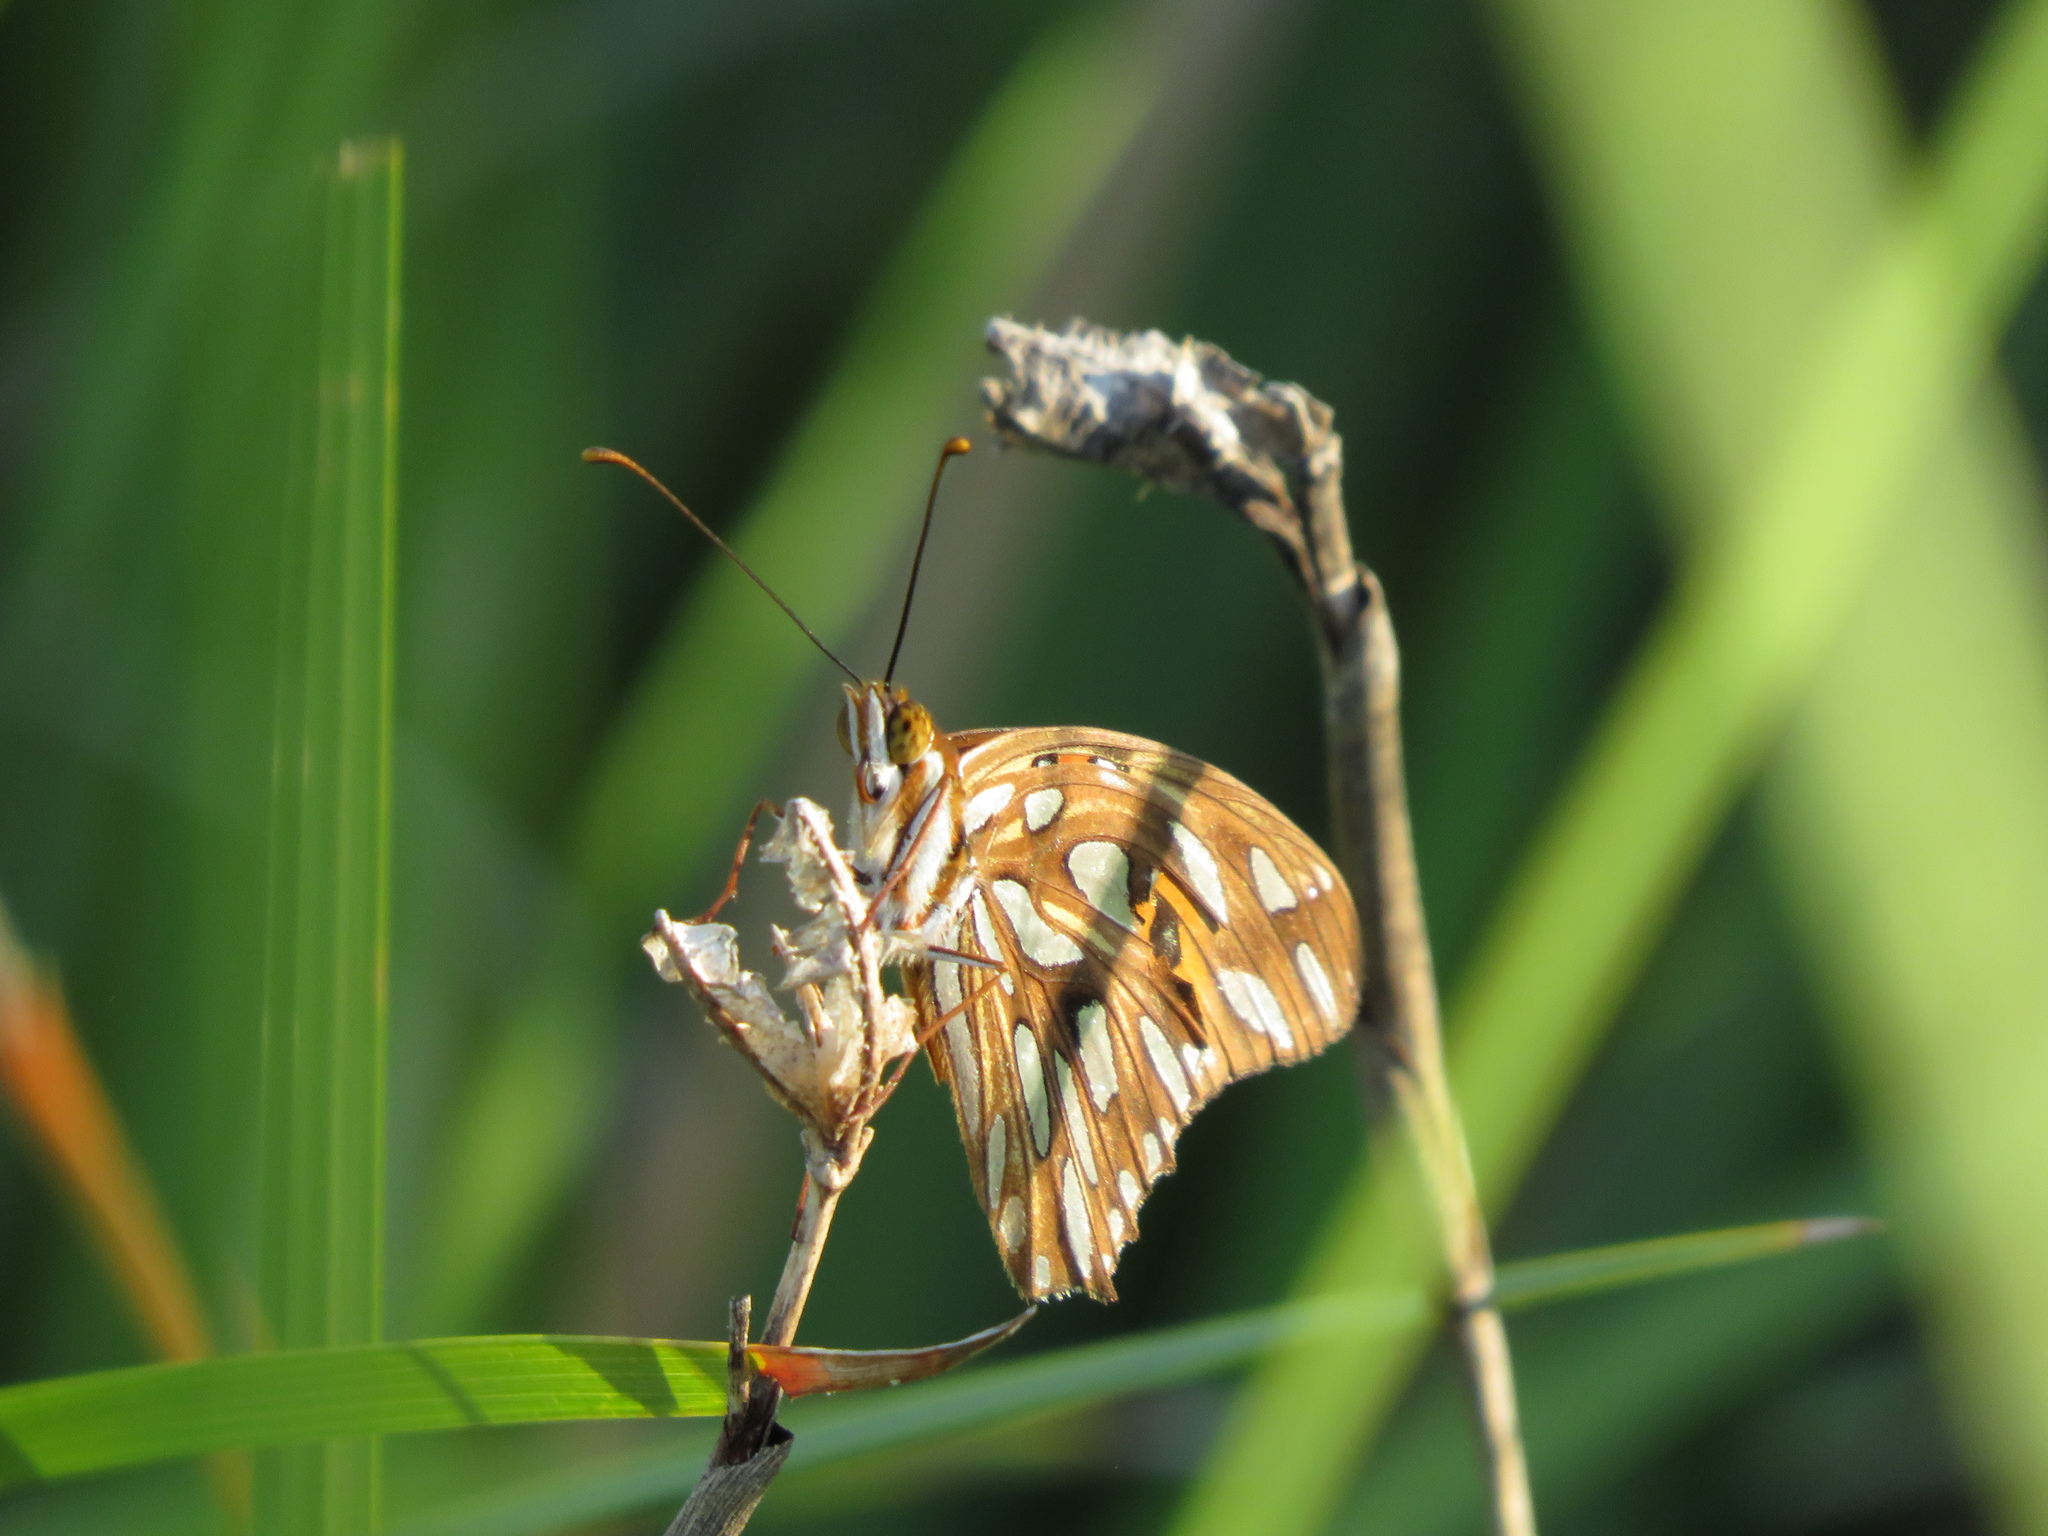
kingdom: Animalia
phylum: Arthropoda
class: Insecta
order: Lepidoptera
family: Nymphalidae
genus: Dione
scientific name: Dione vanillae
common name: Gulf fritillary
